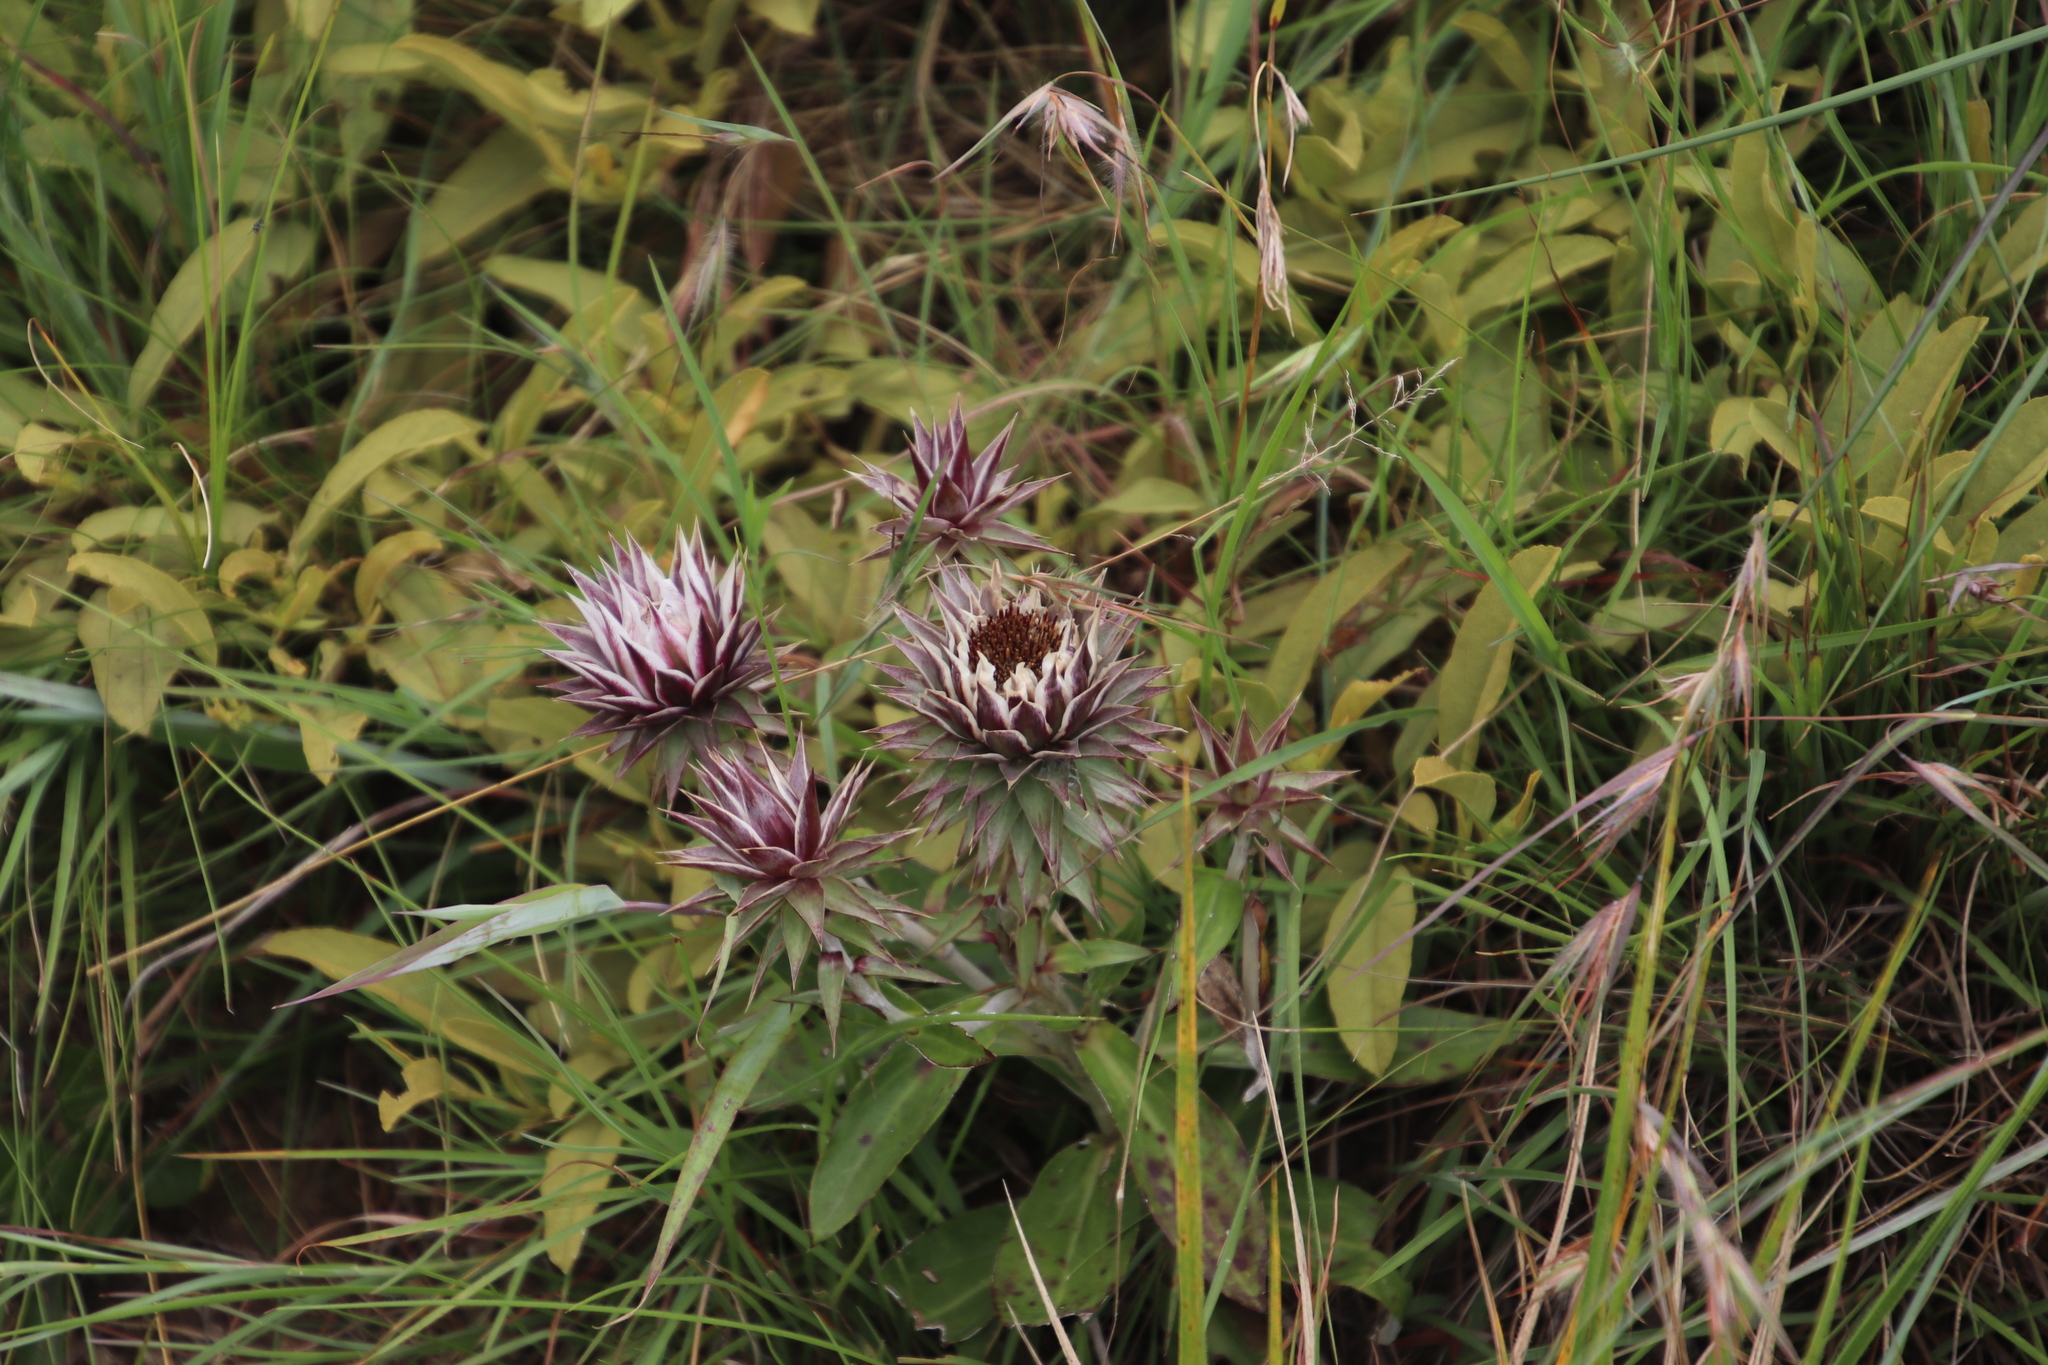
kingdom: Plantae
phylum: Tracheophyta
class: Magnoliopsida
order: Asterales
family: Asteraceae
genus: Macledium
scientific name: Macledium zeyheri
